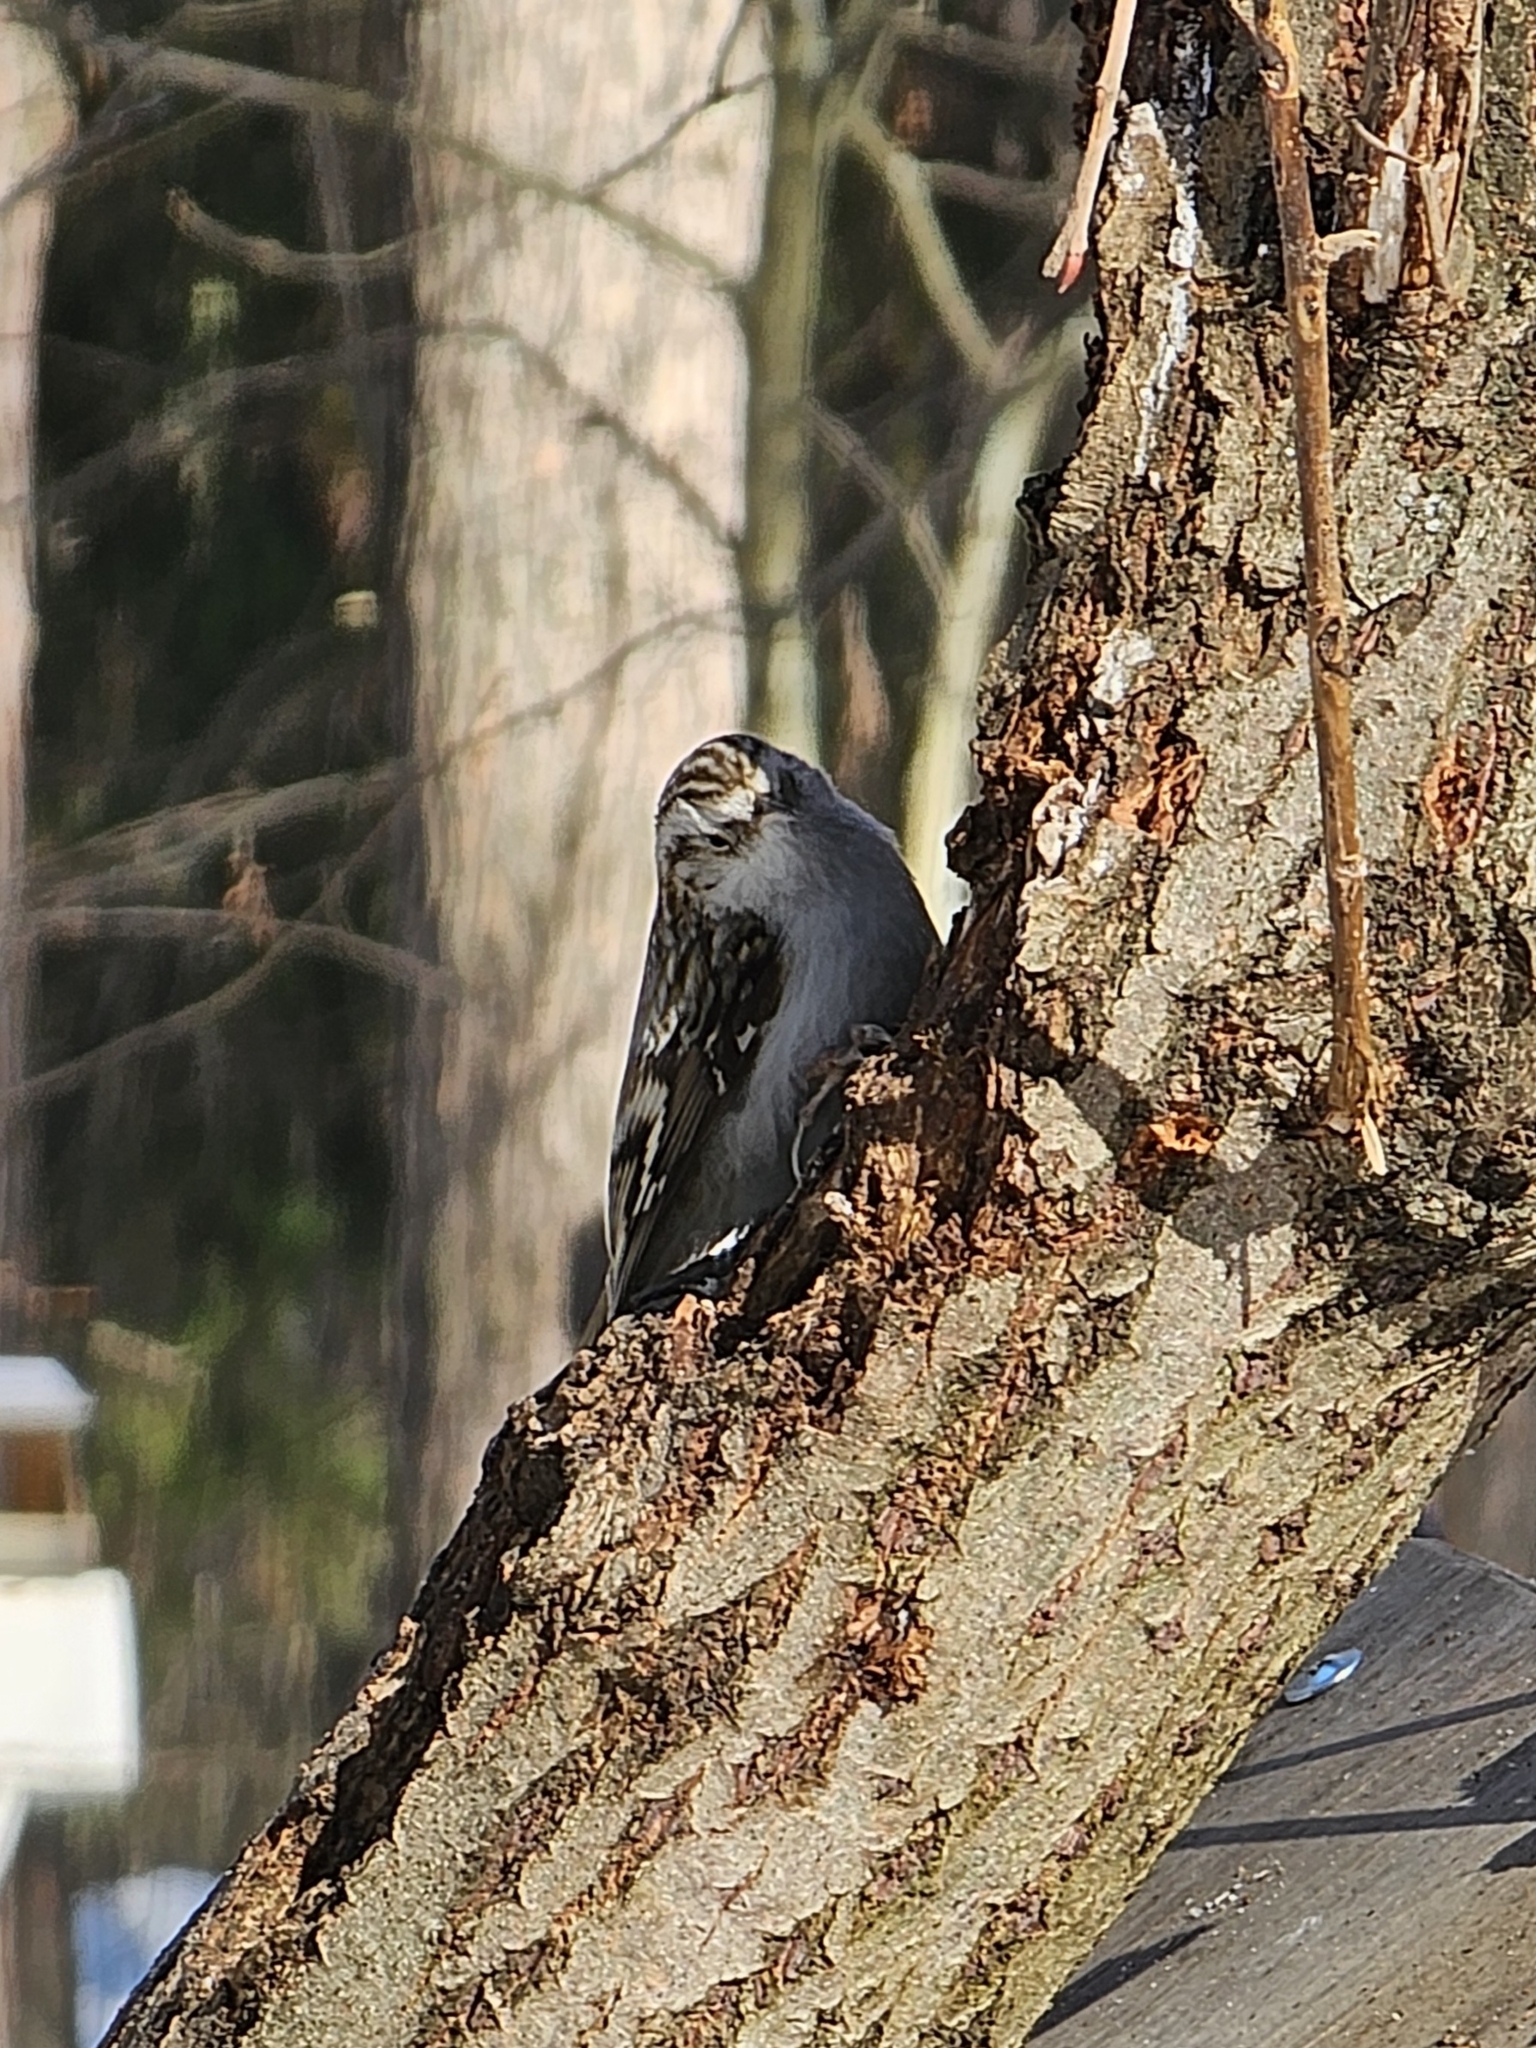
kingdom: Animalia
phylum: Chordata
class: Aves
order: Passeriformes
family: Certhiidae
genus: Certhia
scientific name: Certhia familiaris
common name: Eurasian treecreeper
